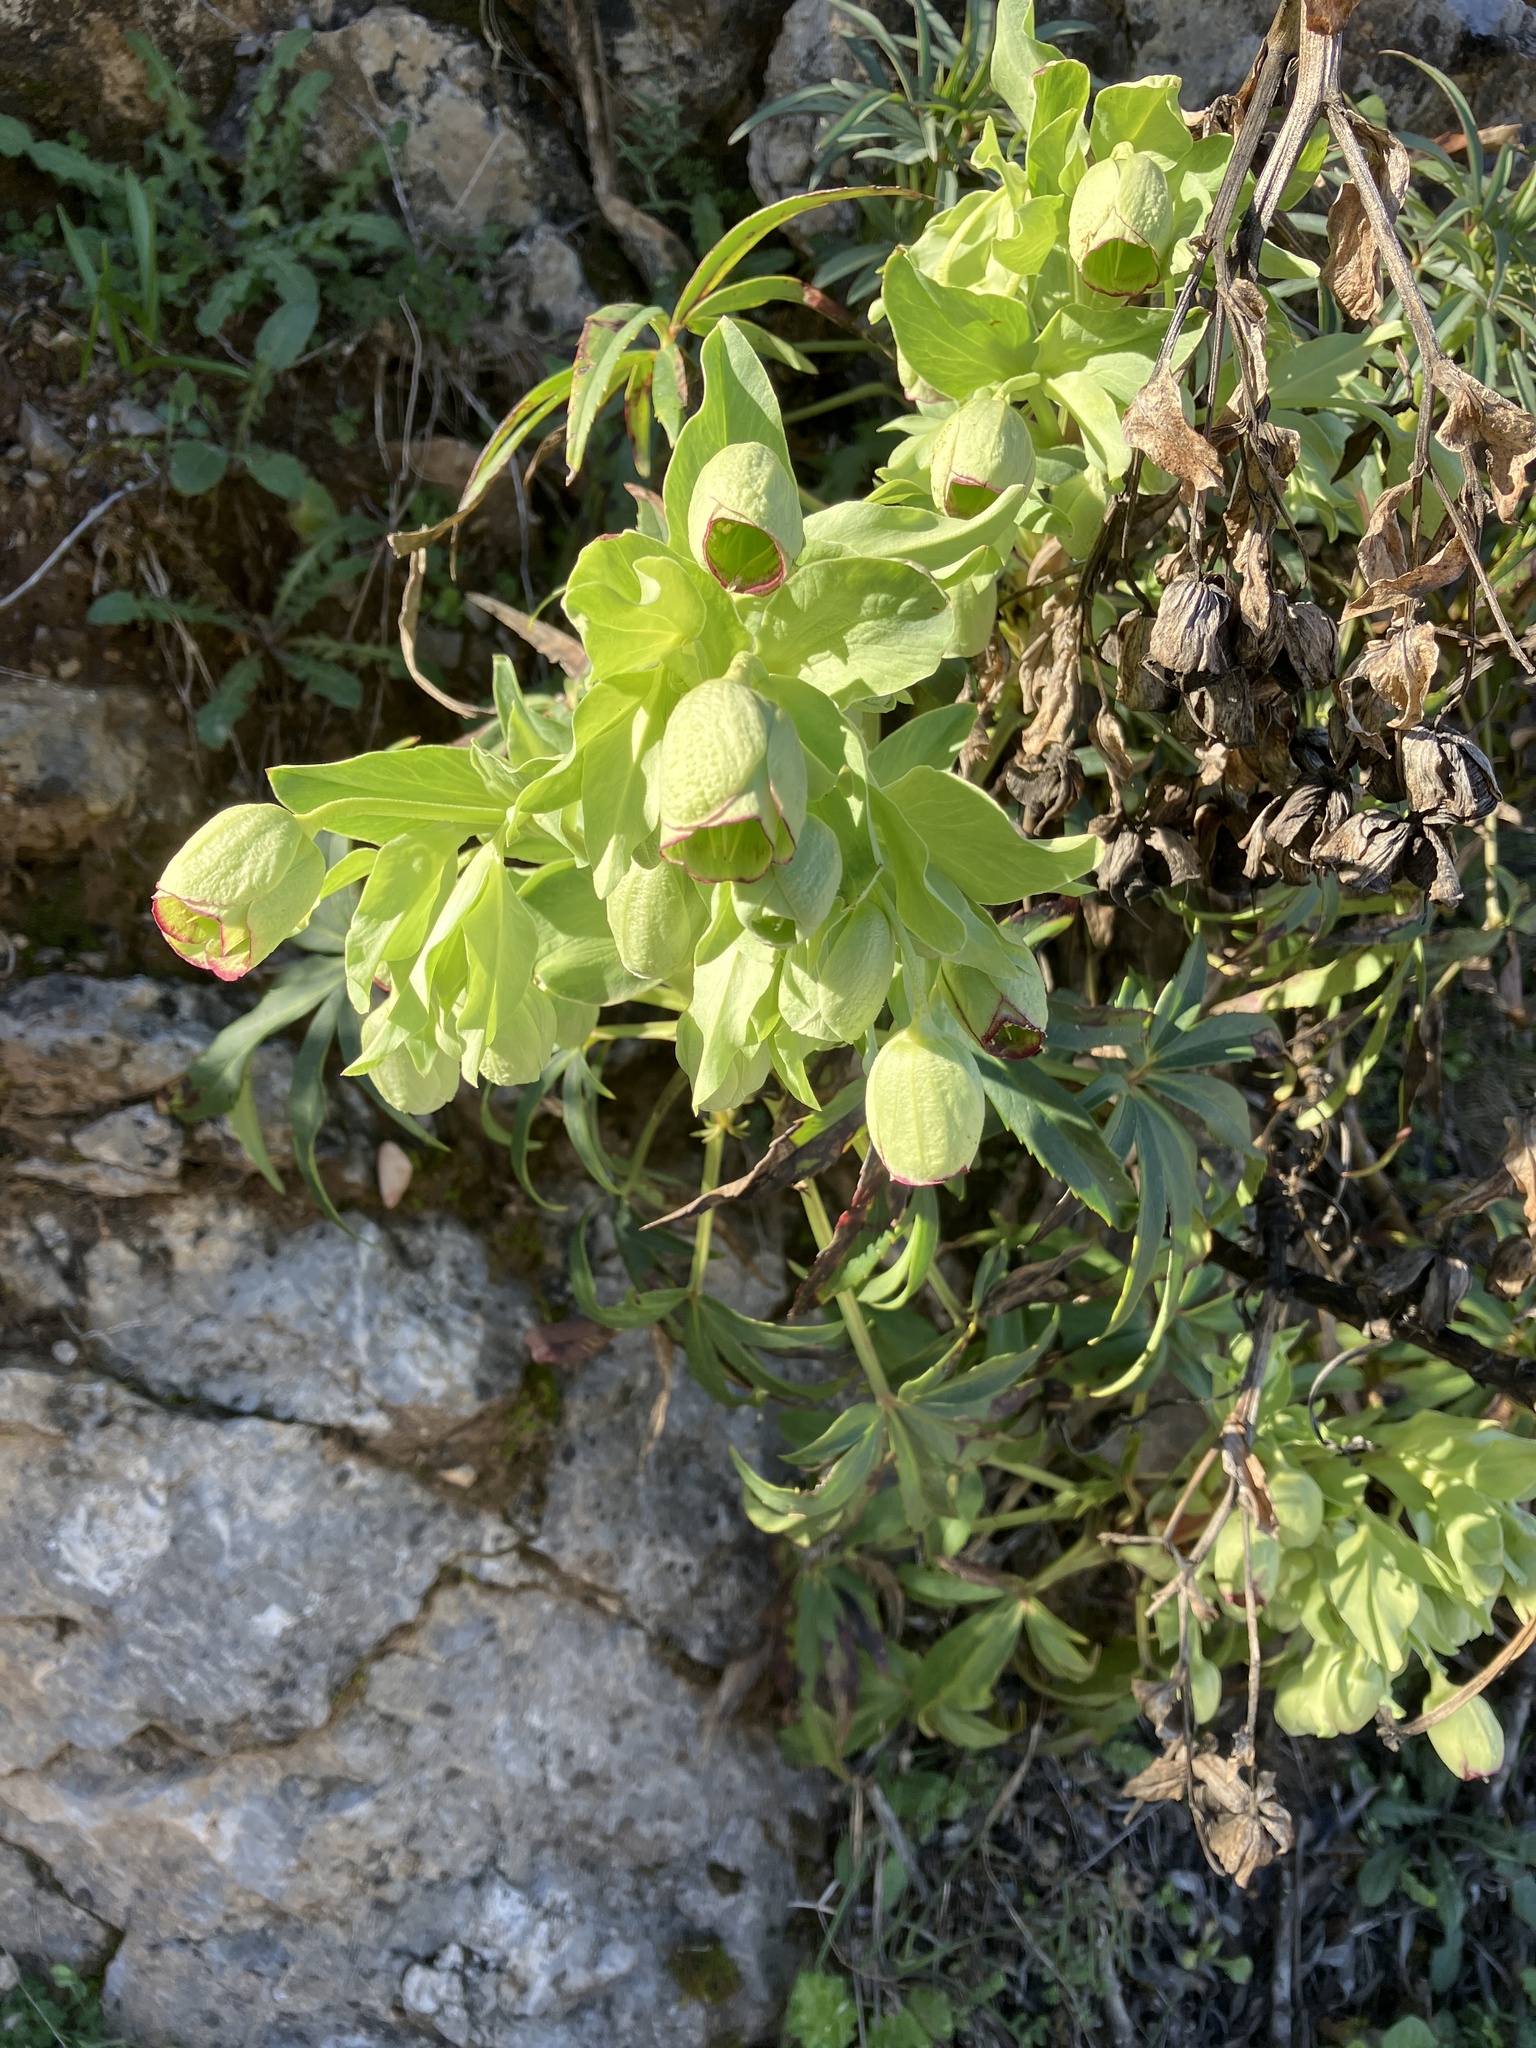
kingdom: Plantae
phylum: Tracheophyta
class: Magnoliopsida
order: Ranunculales
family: Ranunculaceae
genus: Helleborus
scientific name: Helleborus foetidus
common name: Stinking hellebore
